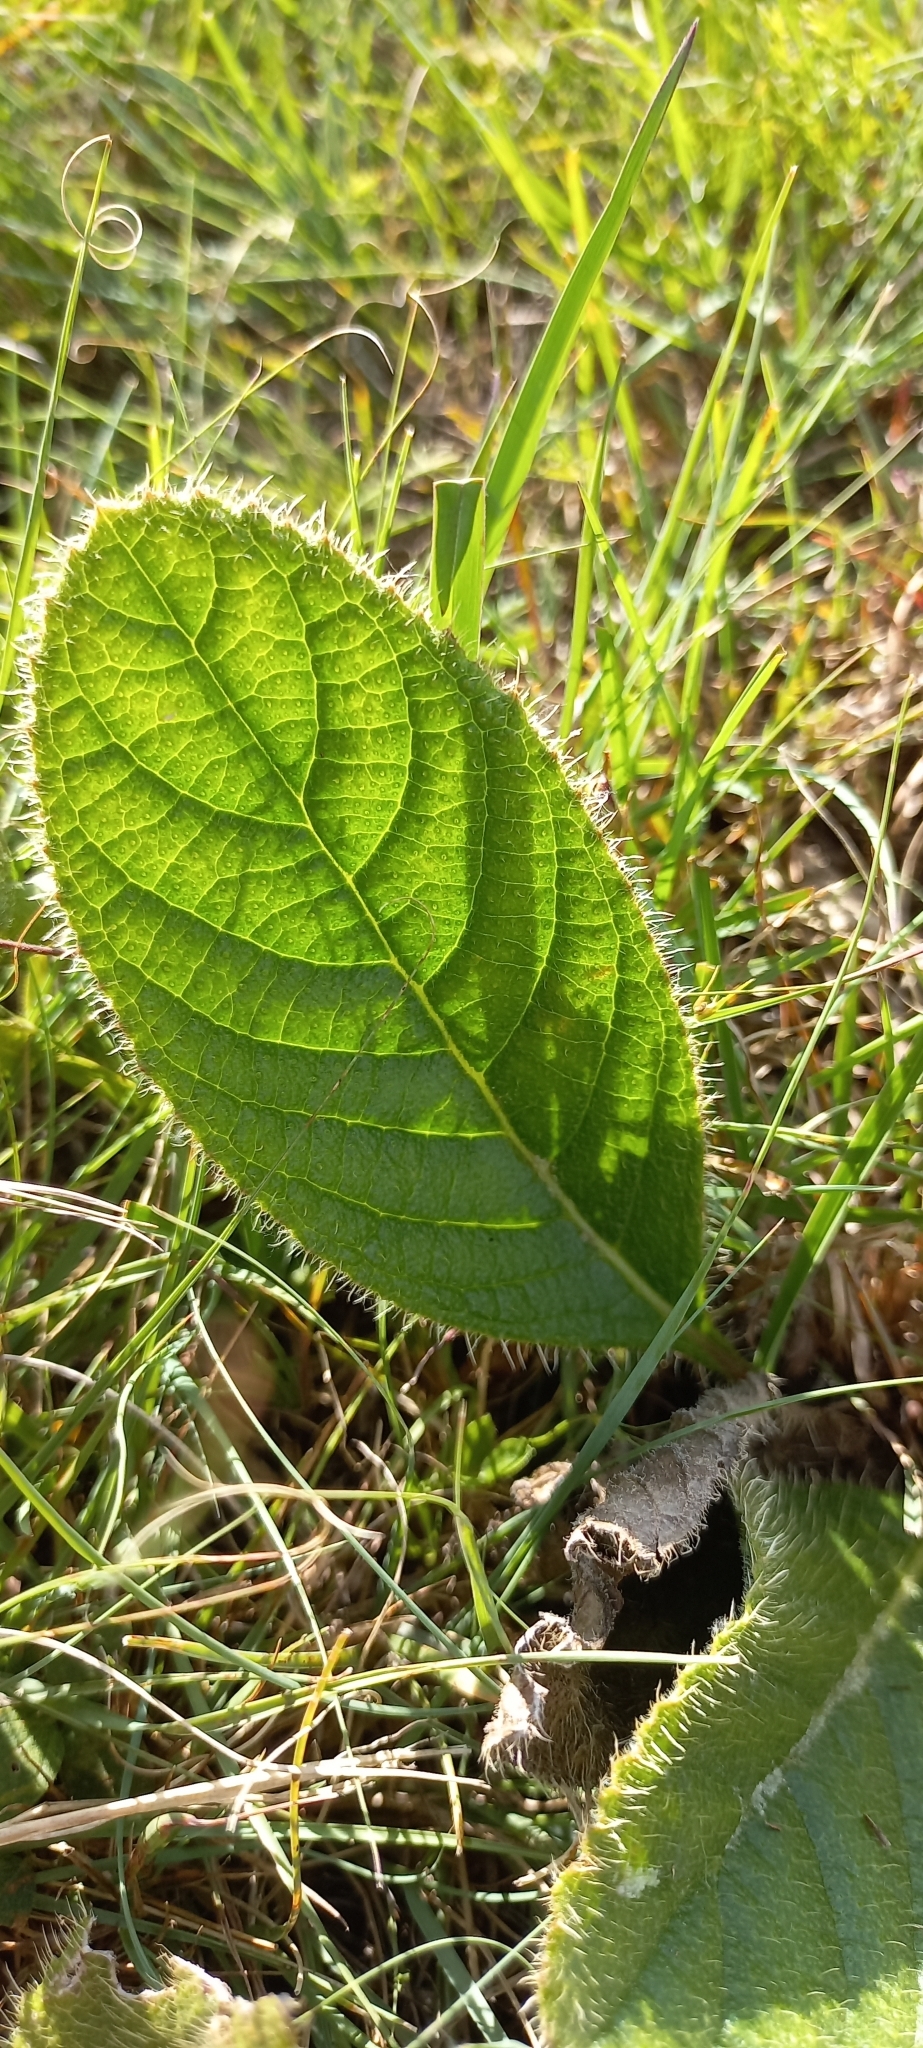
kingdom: Plantae
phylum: Tracheophyta
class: Magnoliopsida
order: Asterales
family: Asteraceae
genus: Berkheya
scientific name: Berkheya setifera
